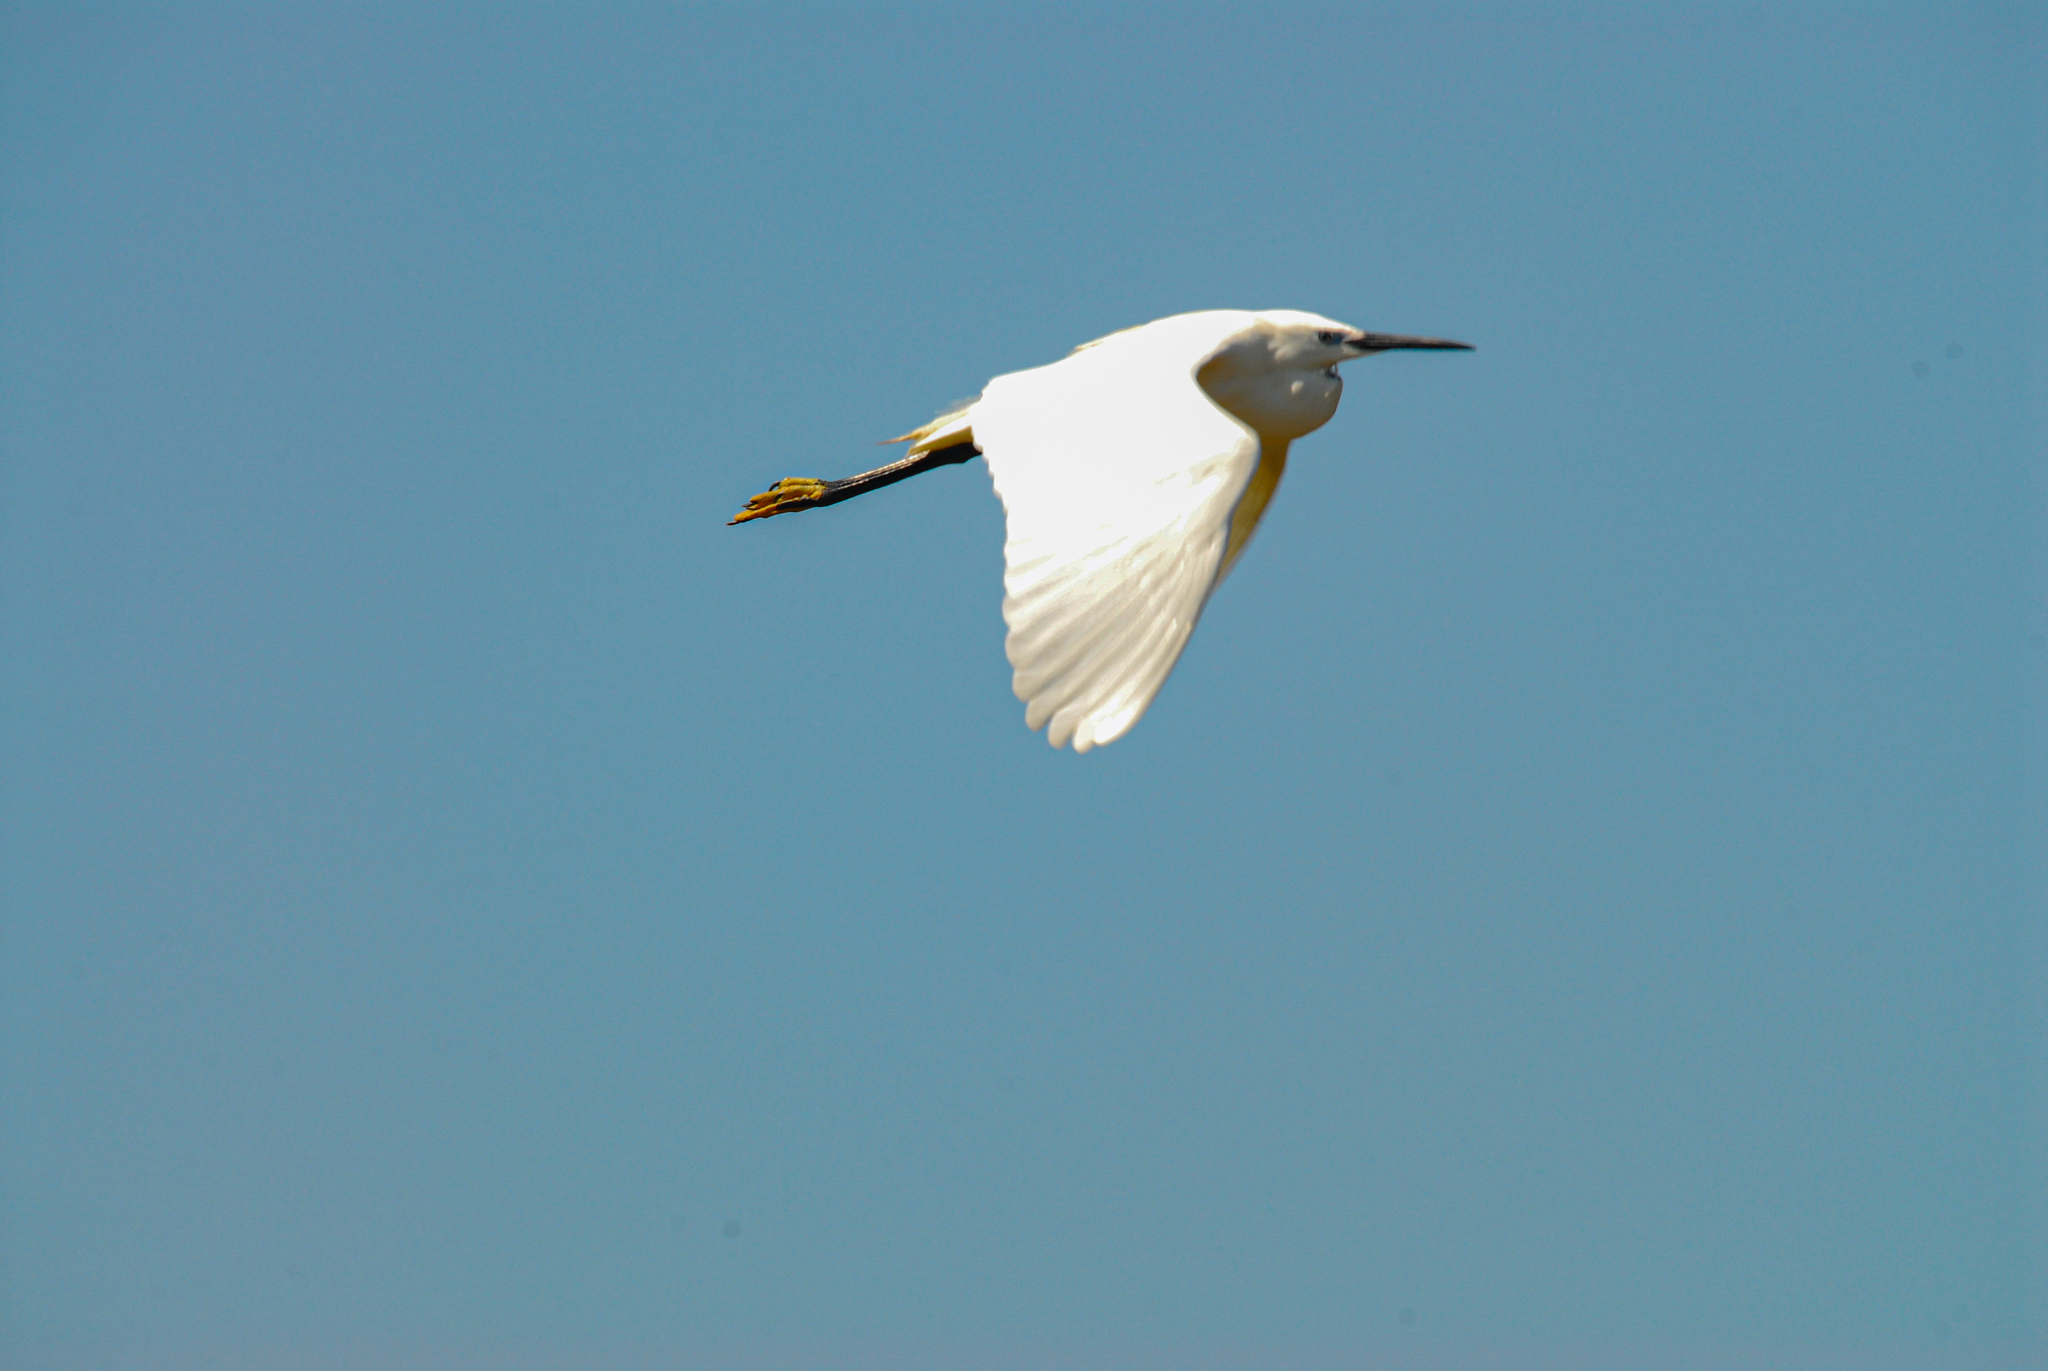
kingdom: Animalia
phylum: Chordata
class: Aves
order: Pelecaniformes
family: Ardeidae
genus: Egretta
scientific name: Egretta garzetta
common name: Little egret
